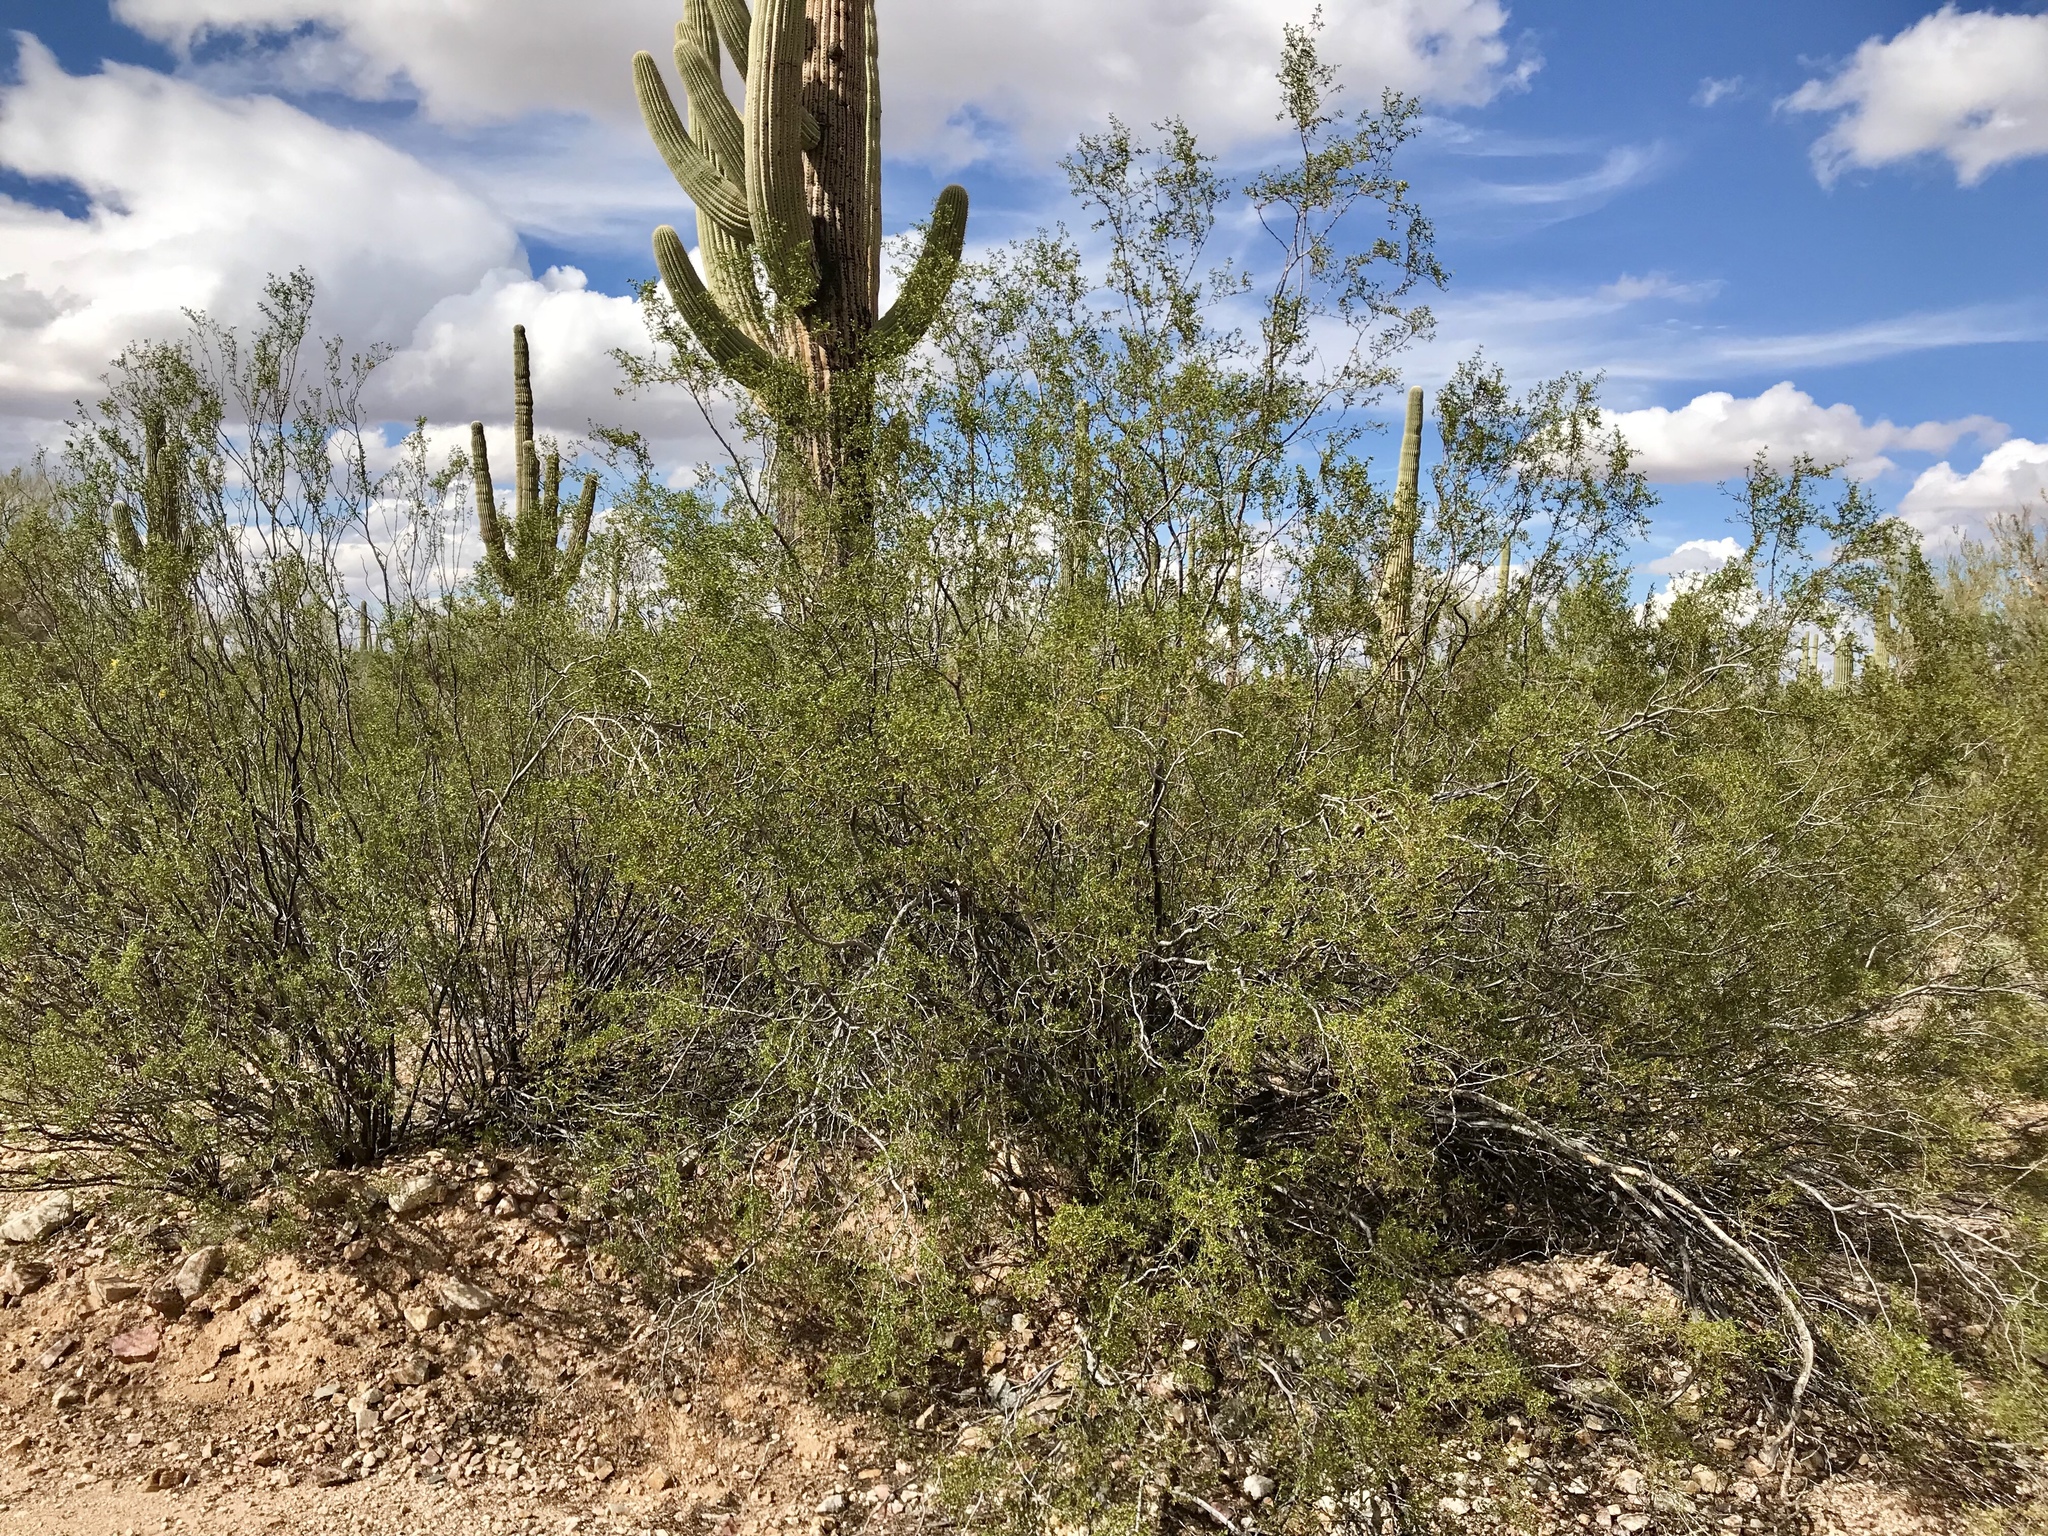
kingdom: Plantae
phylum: Tracheophyta
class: Magnoliopsida
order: Zygophyllales
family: Zygophyllaceae
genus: Larrea
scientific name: Larrea tridentata
